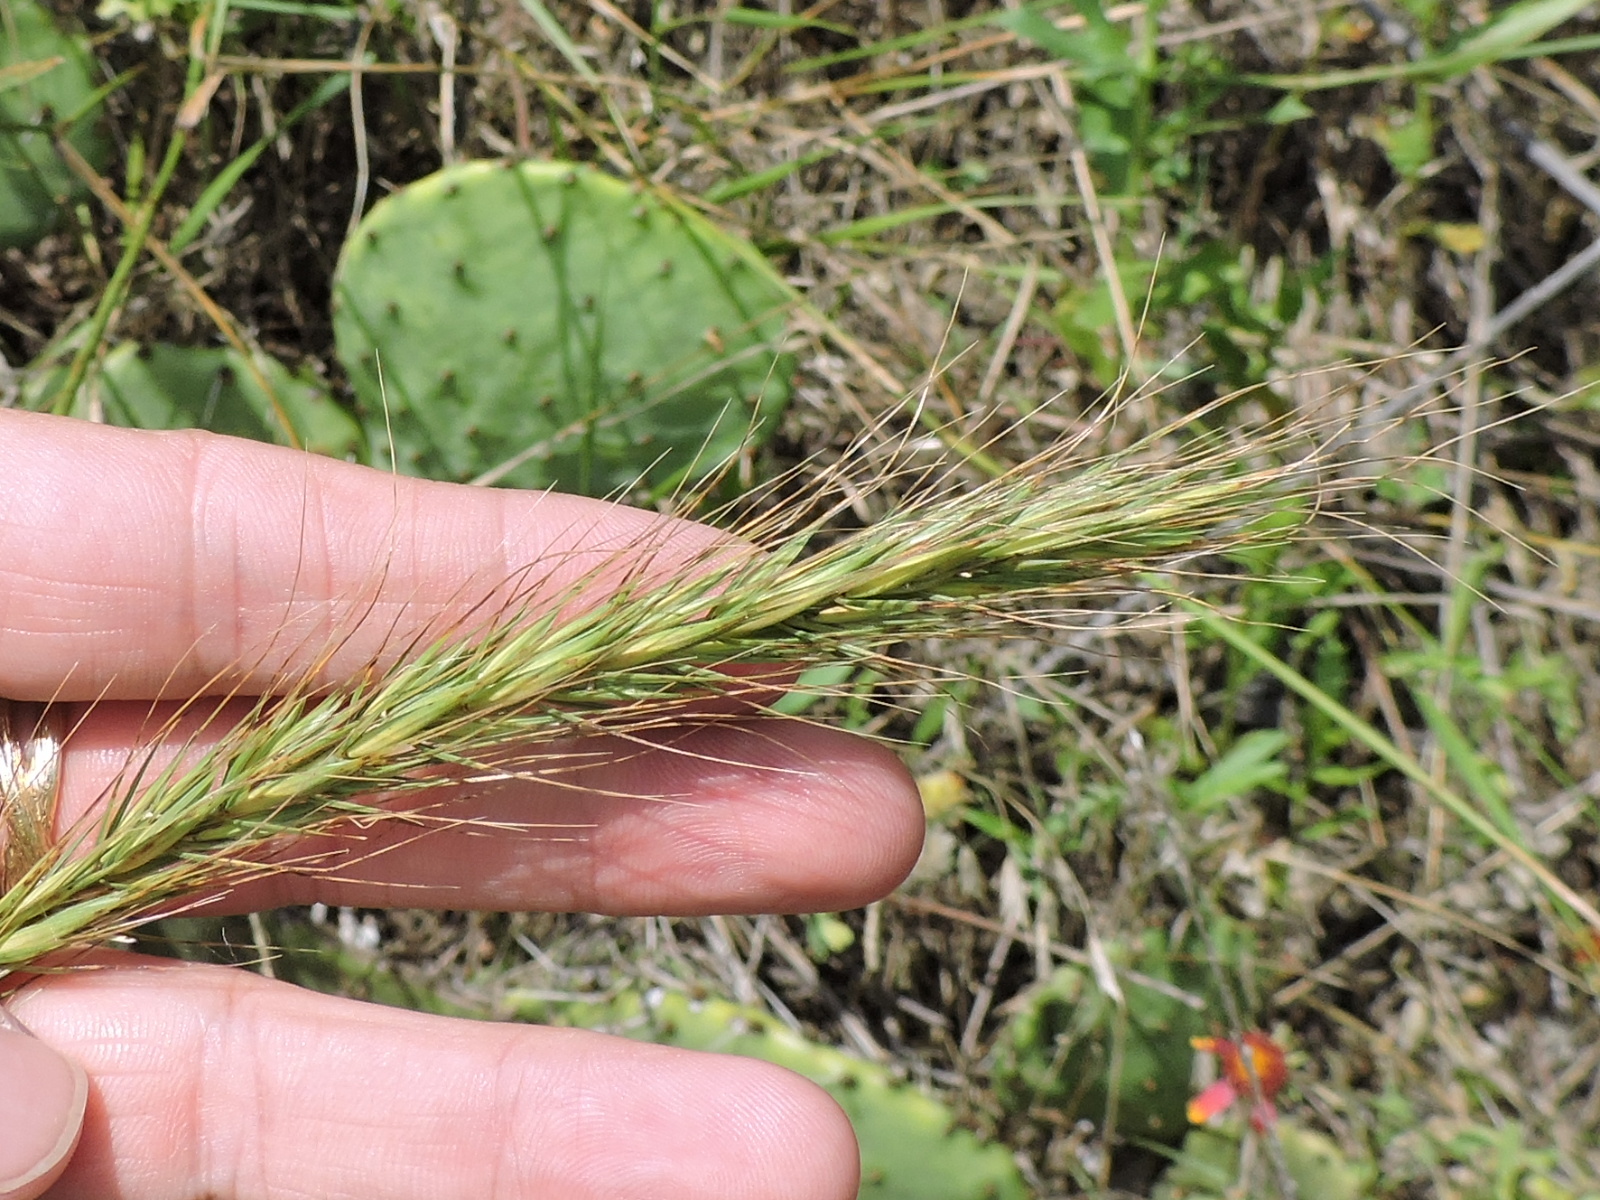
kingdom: Plantae
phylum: Tracheophyta
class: Liliopsida
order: Poales
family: Poaceae
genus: Elymus
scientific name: Elymus canadensis
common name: Canada wild rye
